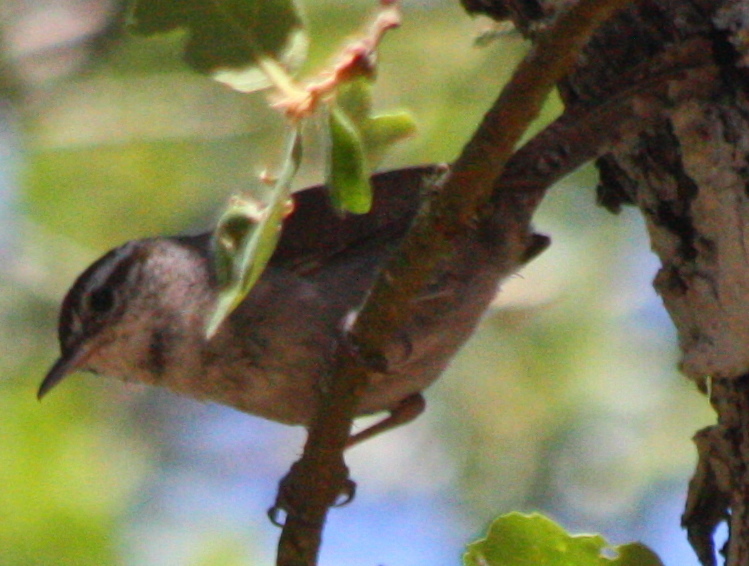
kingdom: Animalia
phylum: Chordata
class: Aves
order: Passeriformes
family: Troglodytidae
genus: Thryomanes
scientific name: Thryomanes bewickii
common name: Bewick's wren
